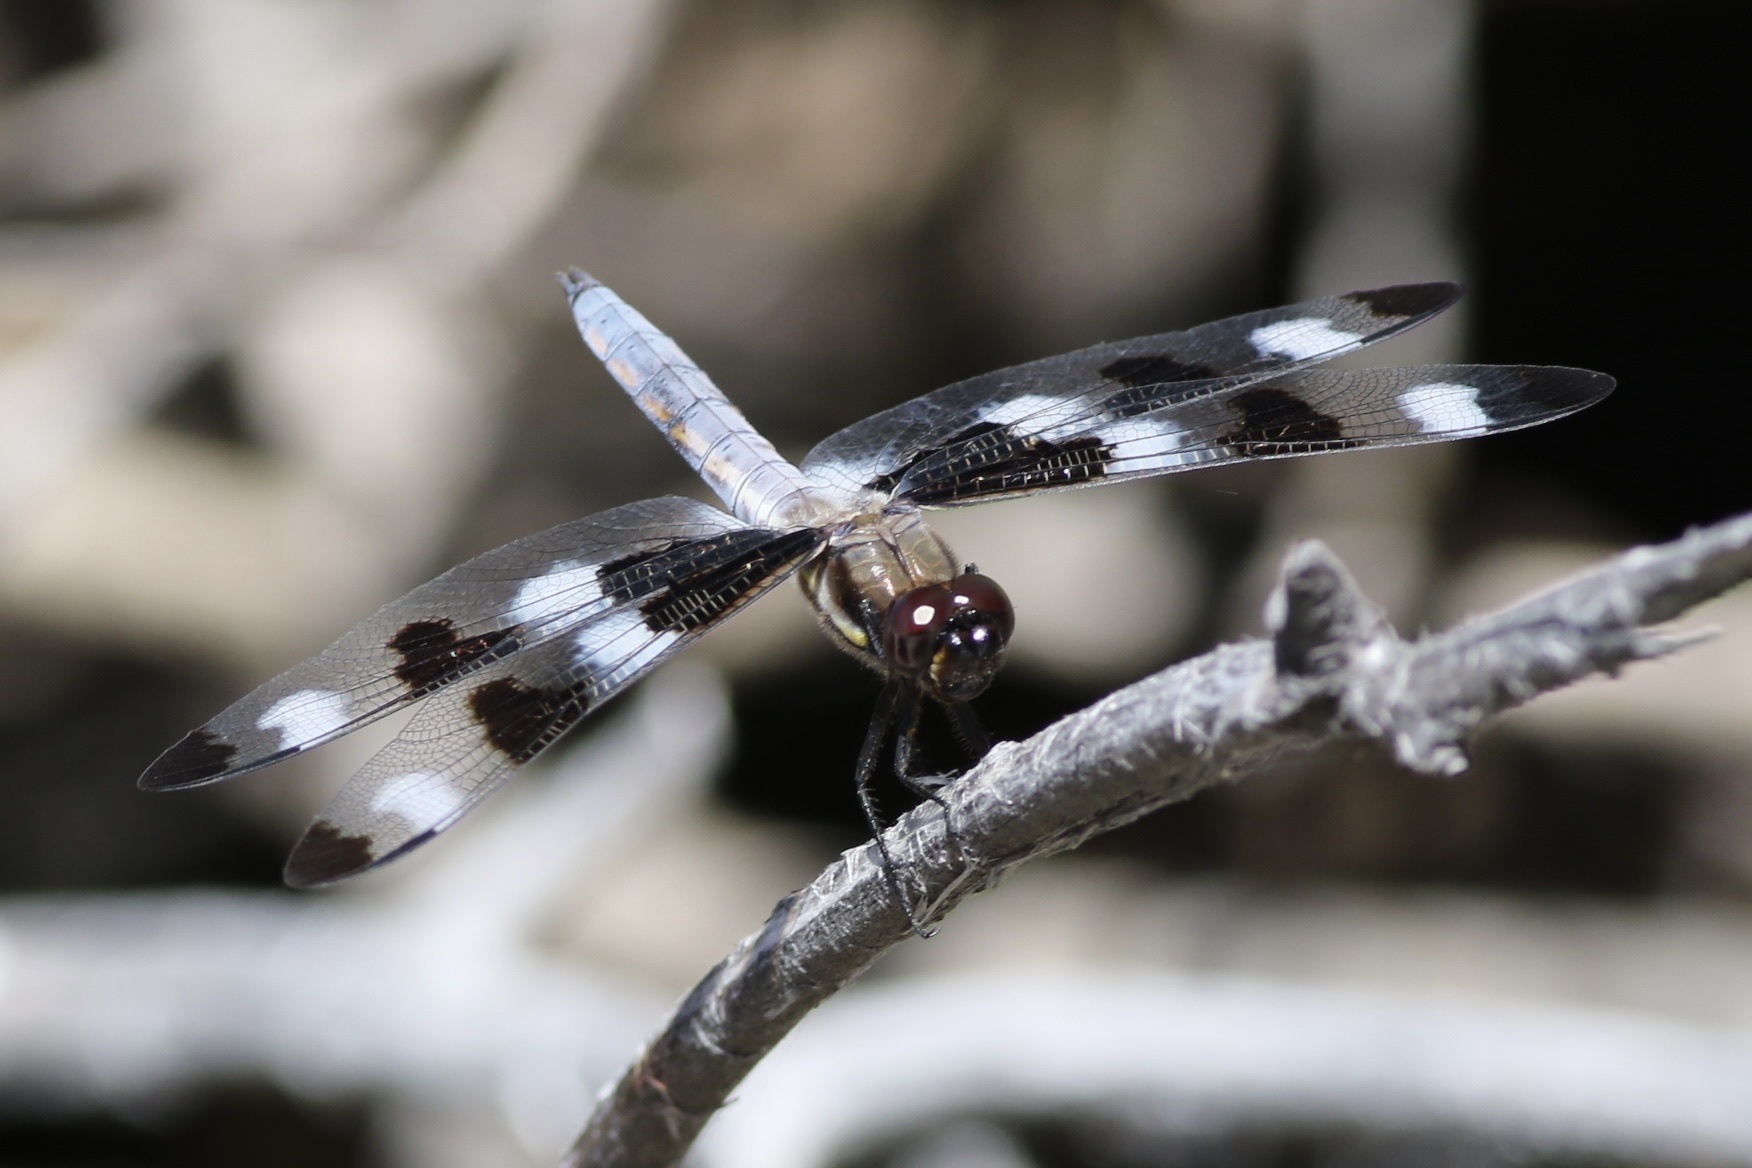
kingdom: Animalia
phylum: Arthropoda
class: Insecta
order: Odonata
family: Libellulidae
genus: Libellula
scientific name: Libellula pulchella
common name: Twelve-spotted skimmer
